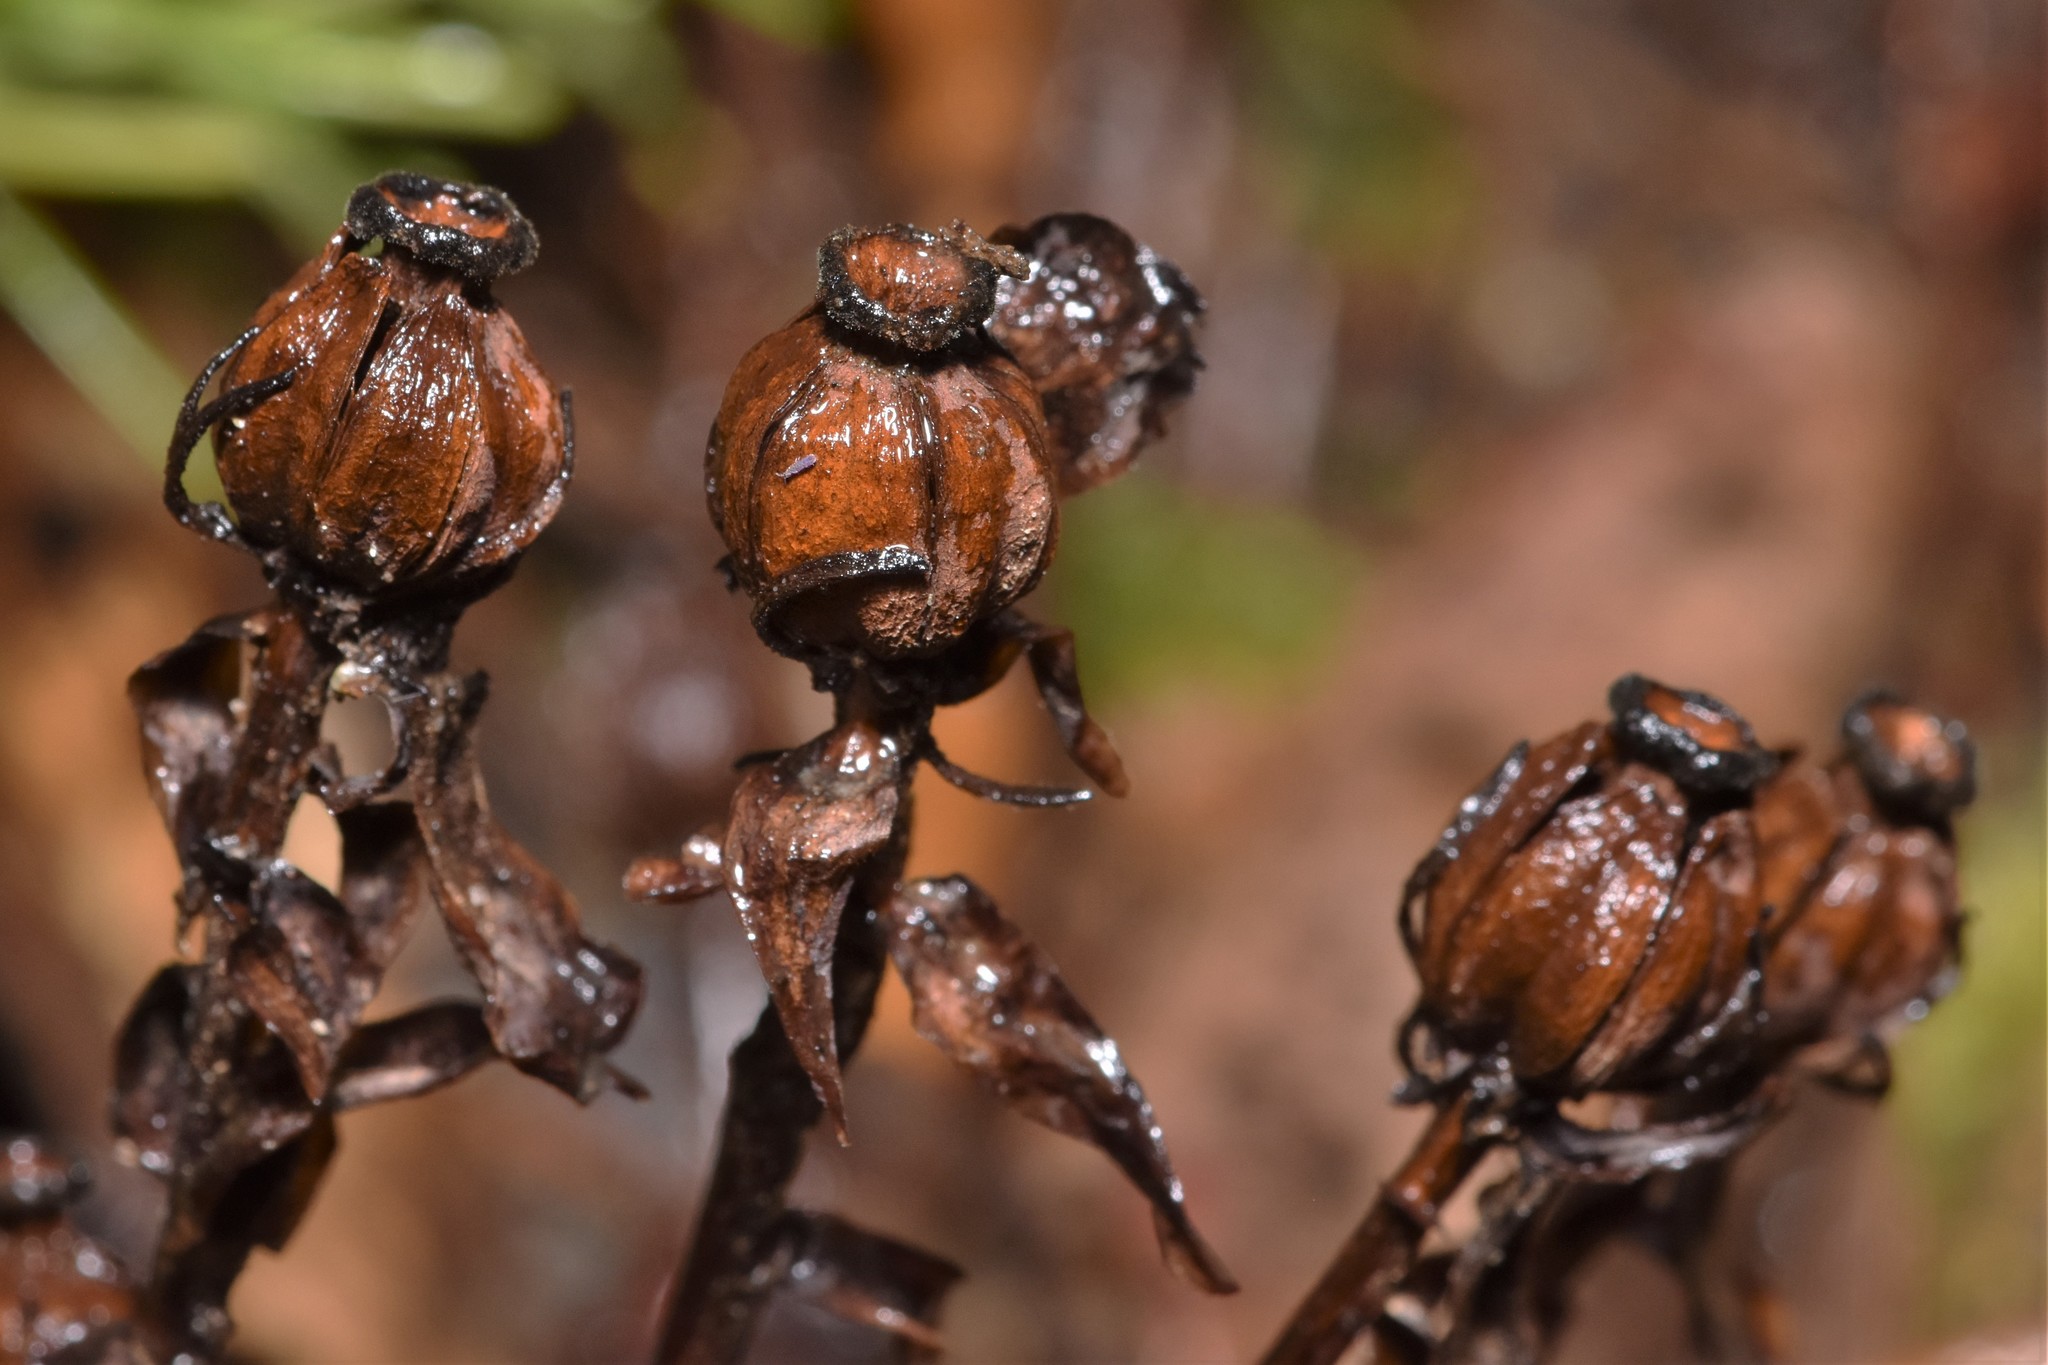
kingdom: Plantae
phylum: Tracheophyta
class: Magnoliopsida
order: Ericales
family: Ericaceae
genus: Monotropa
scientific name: Monotropa uniflora
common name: Convulsion root
